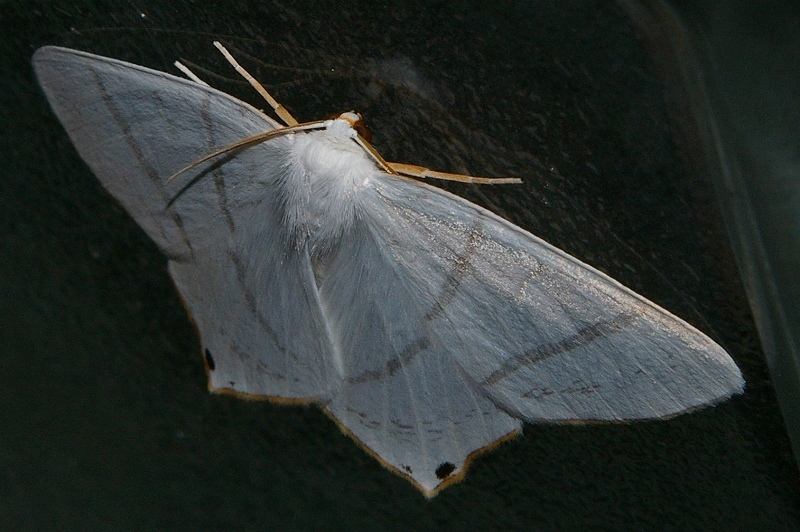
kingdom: Animalia
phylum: Arthropoda
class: Insecta
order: Lepidoptera
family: Geometridae
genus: Ourapteryx
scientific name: Ourapteryx obtusicauda
